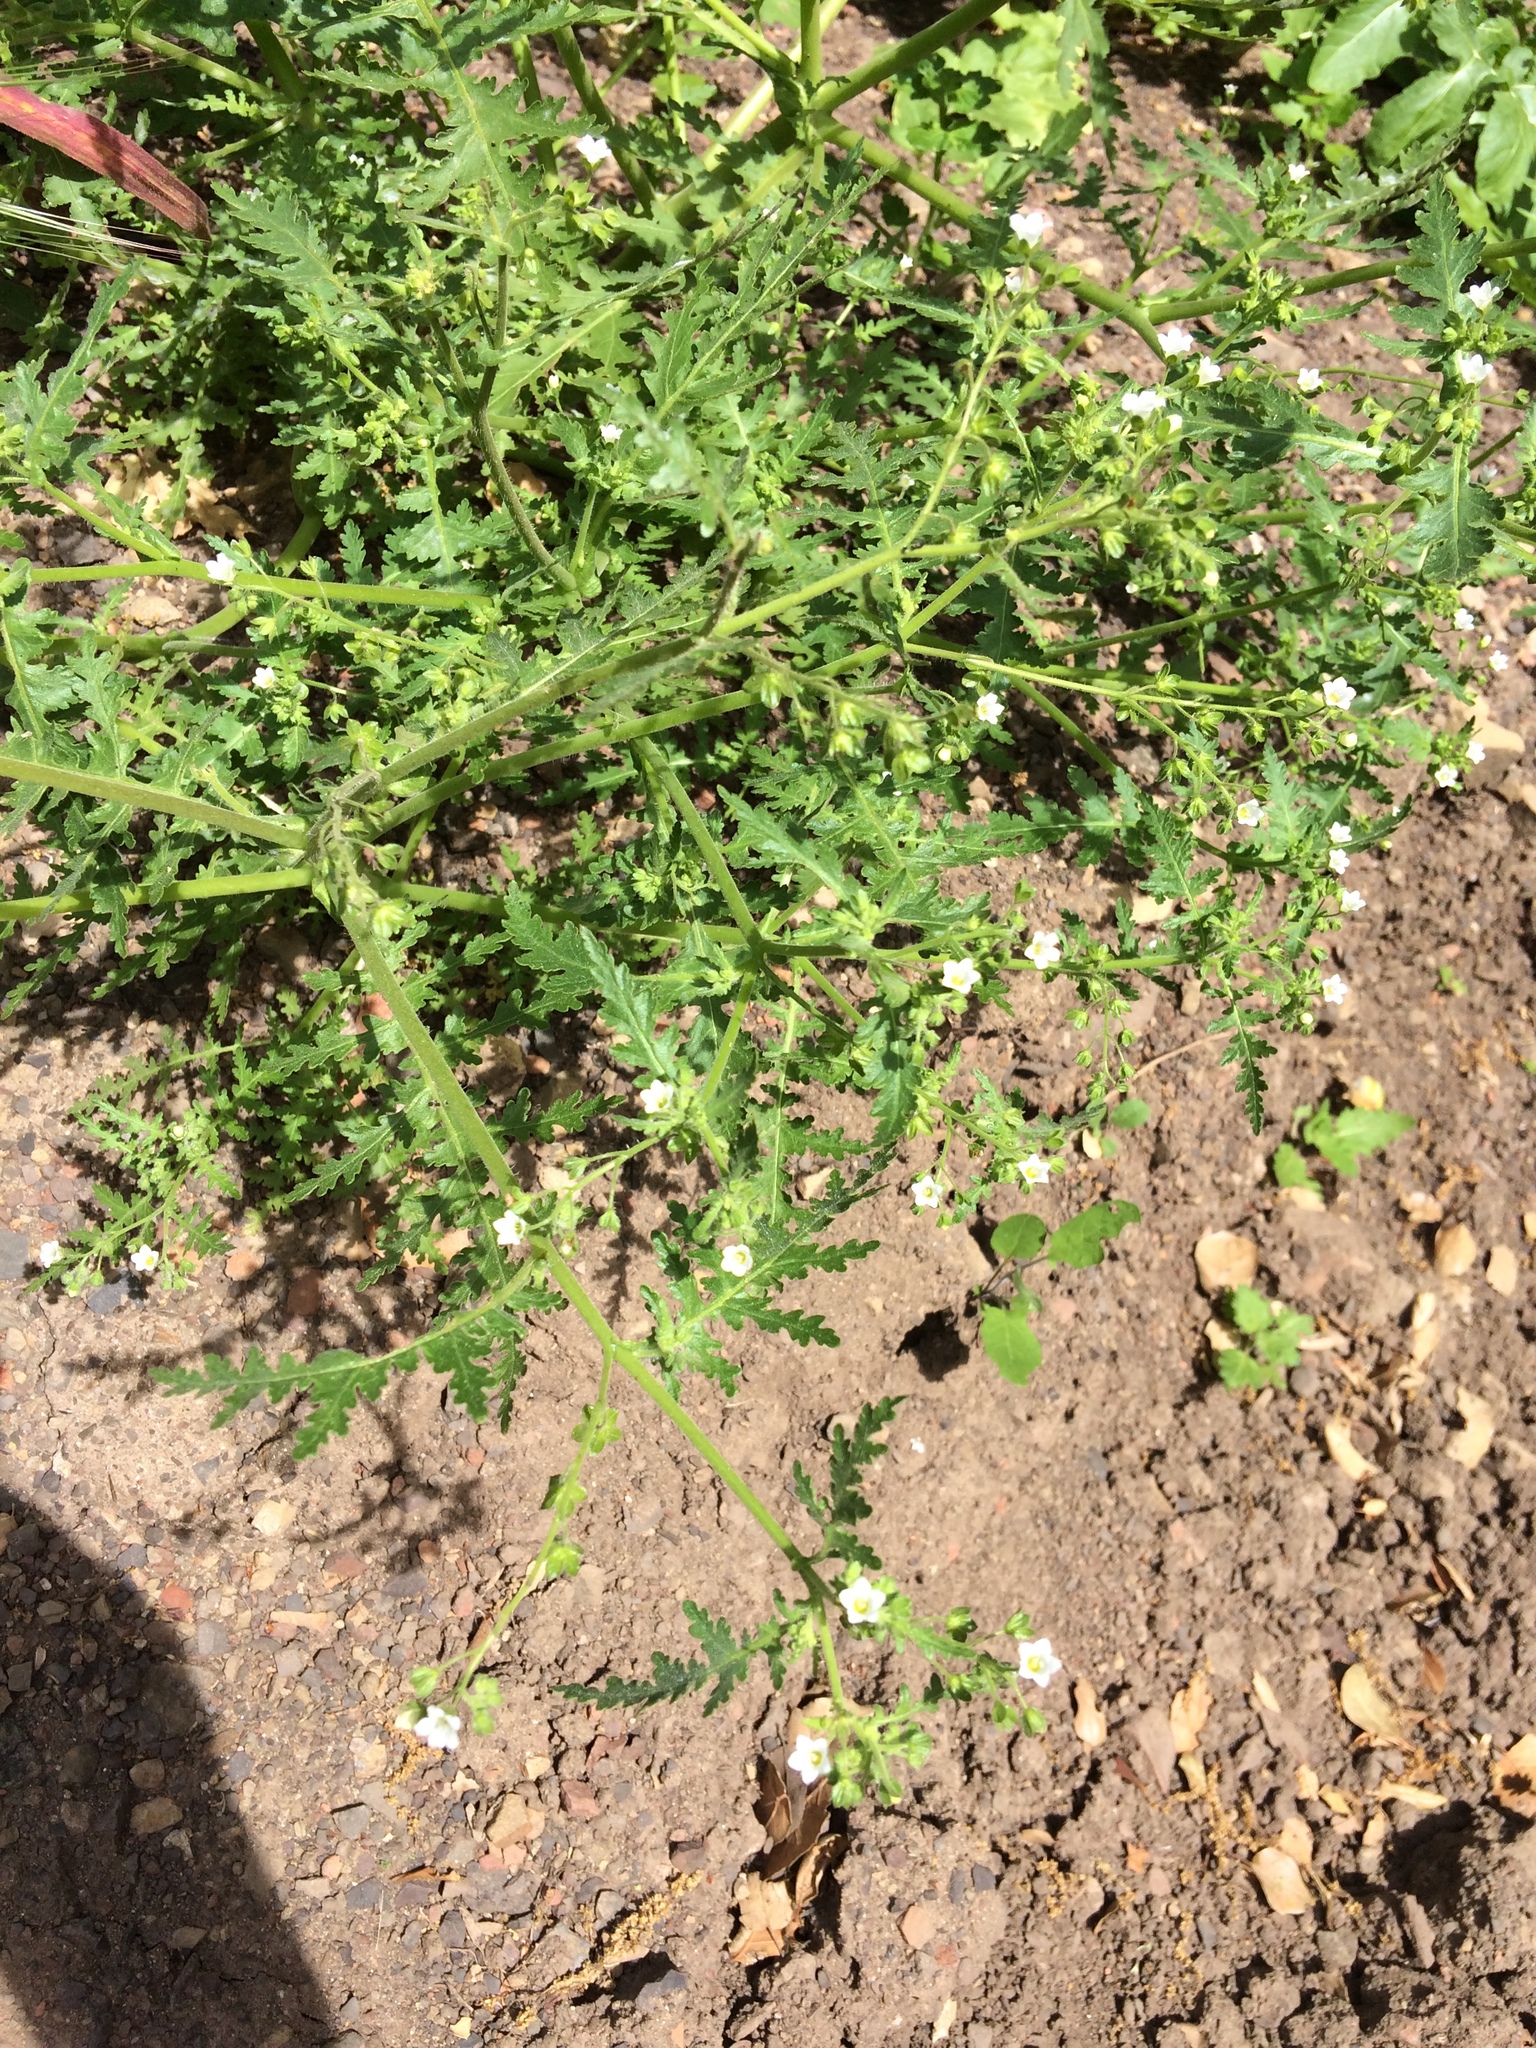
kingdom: Plantae
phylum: Tracheophyta
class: Magnoliopsida
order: Boraginales
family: Hydrophyllaceae
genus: Eucrypta
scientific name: Eucrypta chrysanthemifolia
